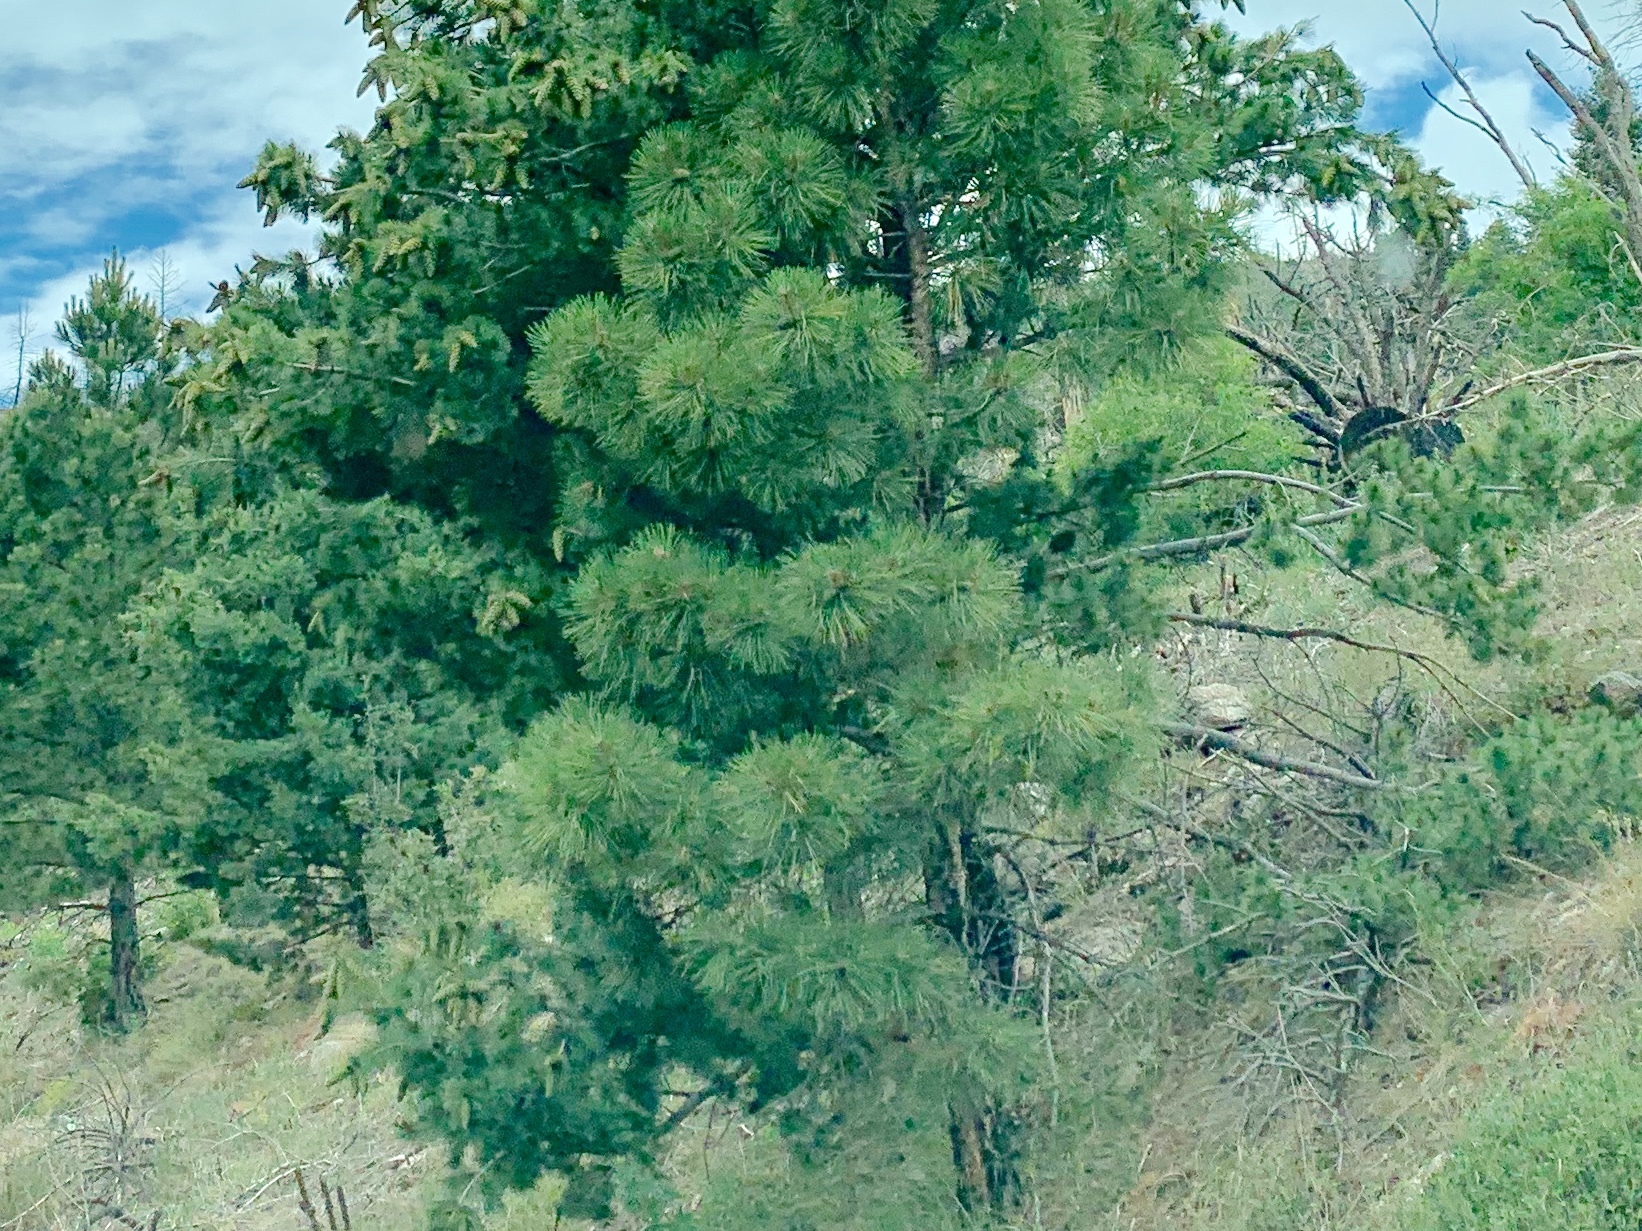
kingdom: Plantae
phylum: Tracheophyta
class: Pinopsida
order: Pinales
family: Pinaceae
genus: Pinus
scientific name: Pinus ponderosa
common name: Western yellow-pine
